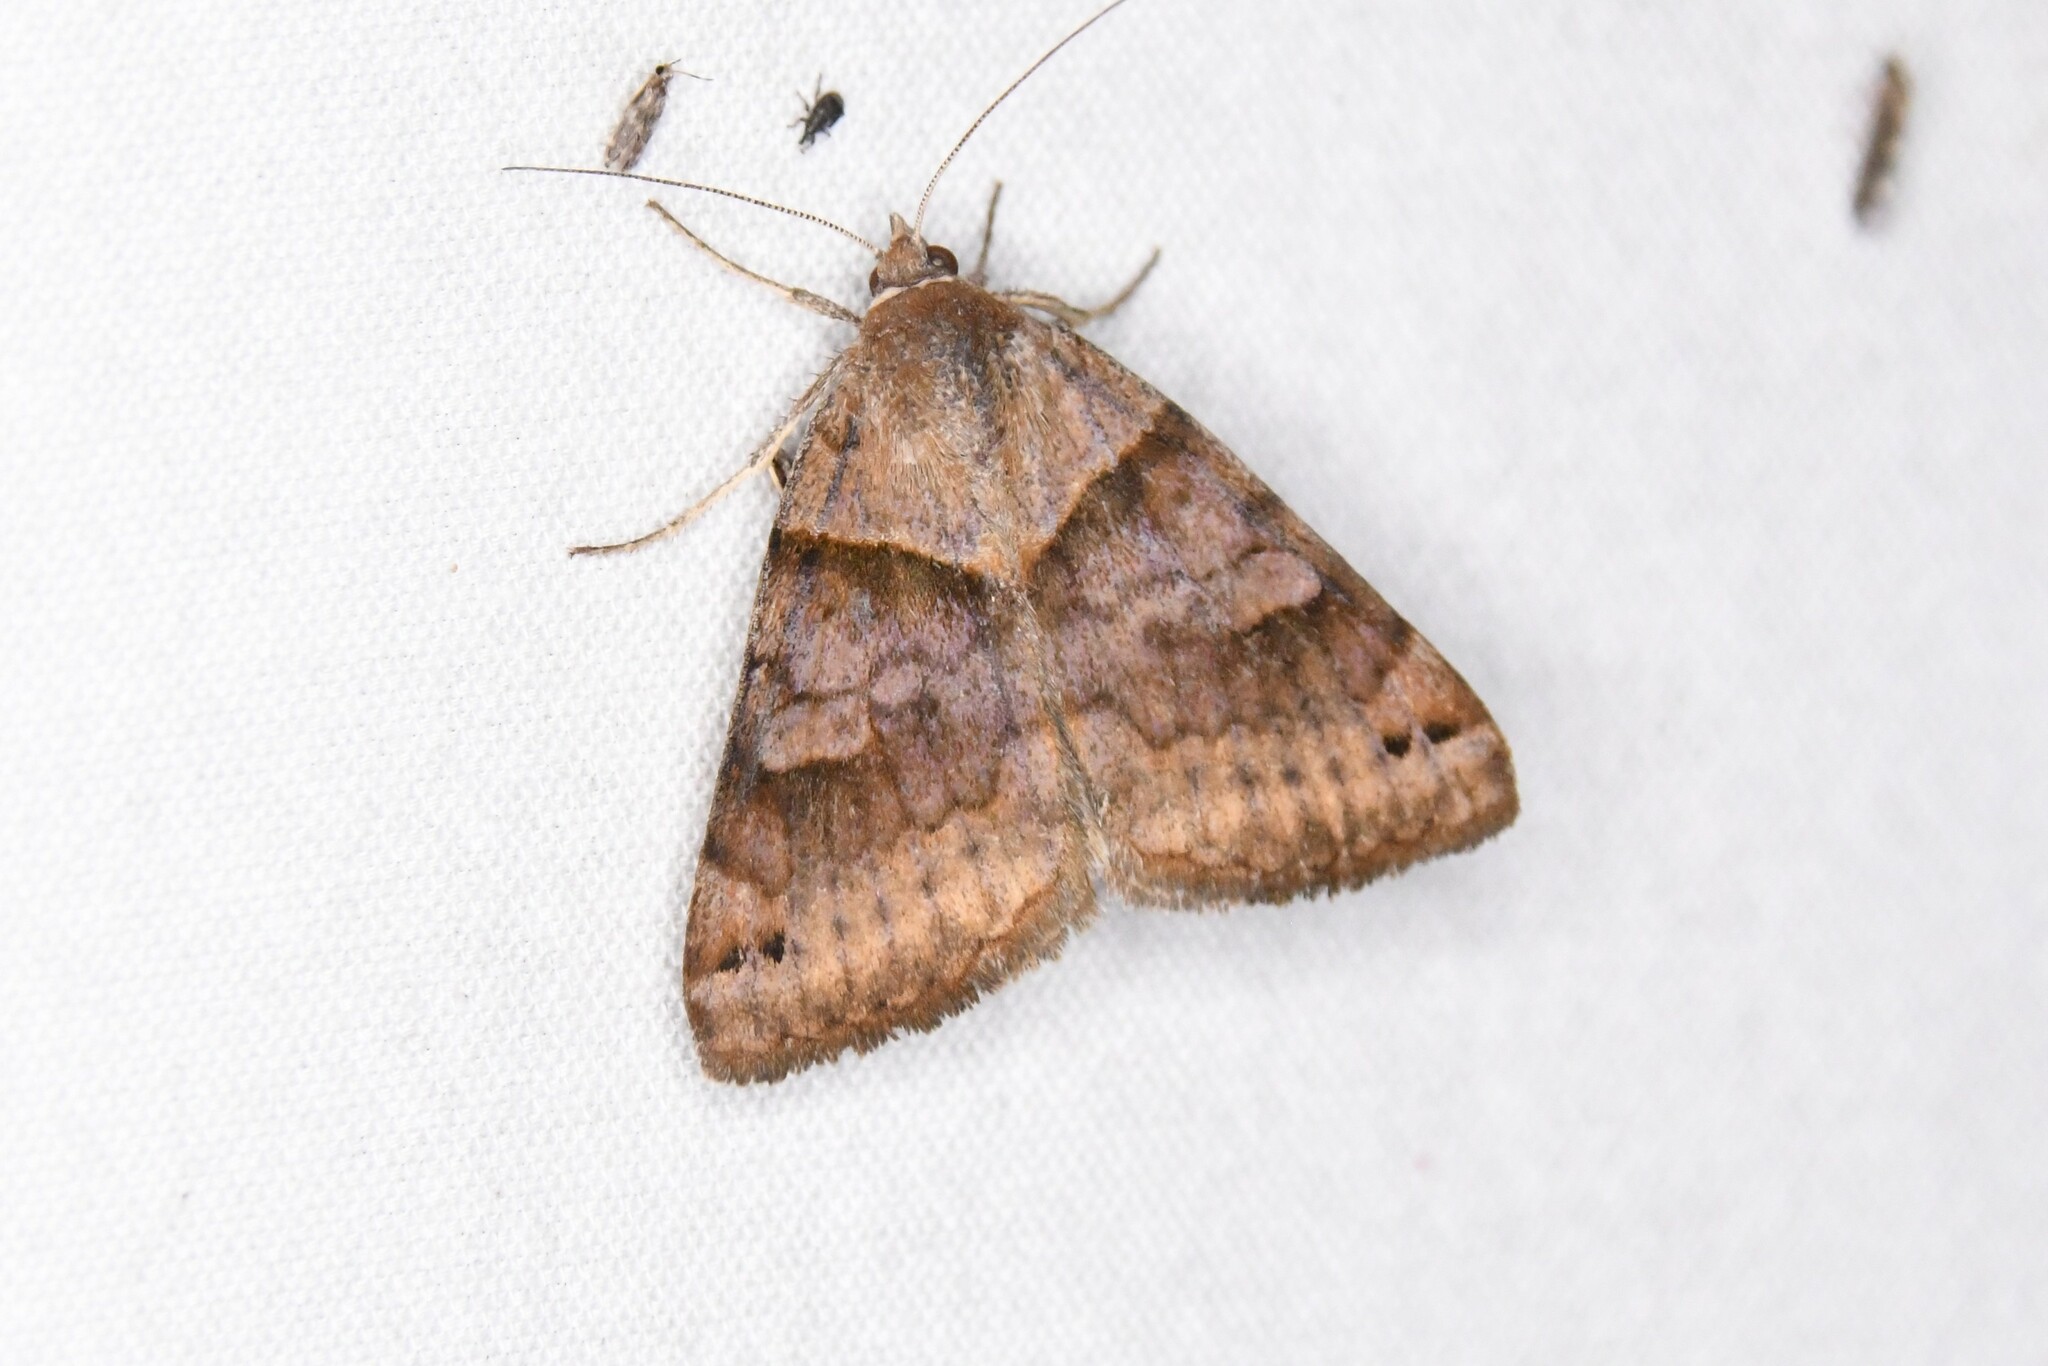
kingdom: Animalia
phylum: Arthropoda
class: Insecta
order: Lepidoptera
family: Erebidae
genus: Caenurgina
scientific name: Caenurgina crassiuscula
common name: Double-barred
